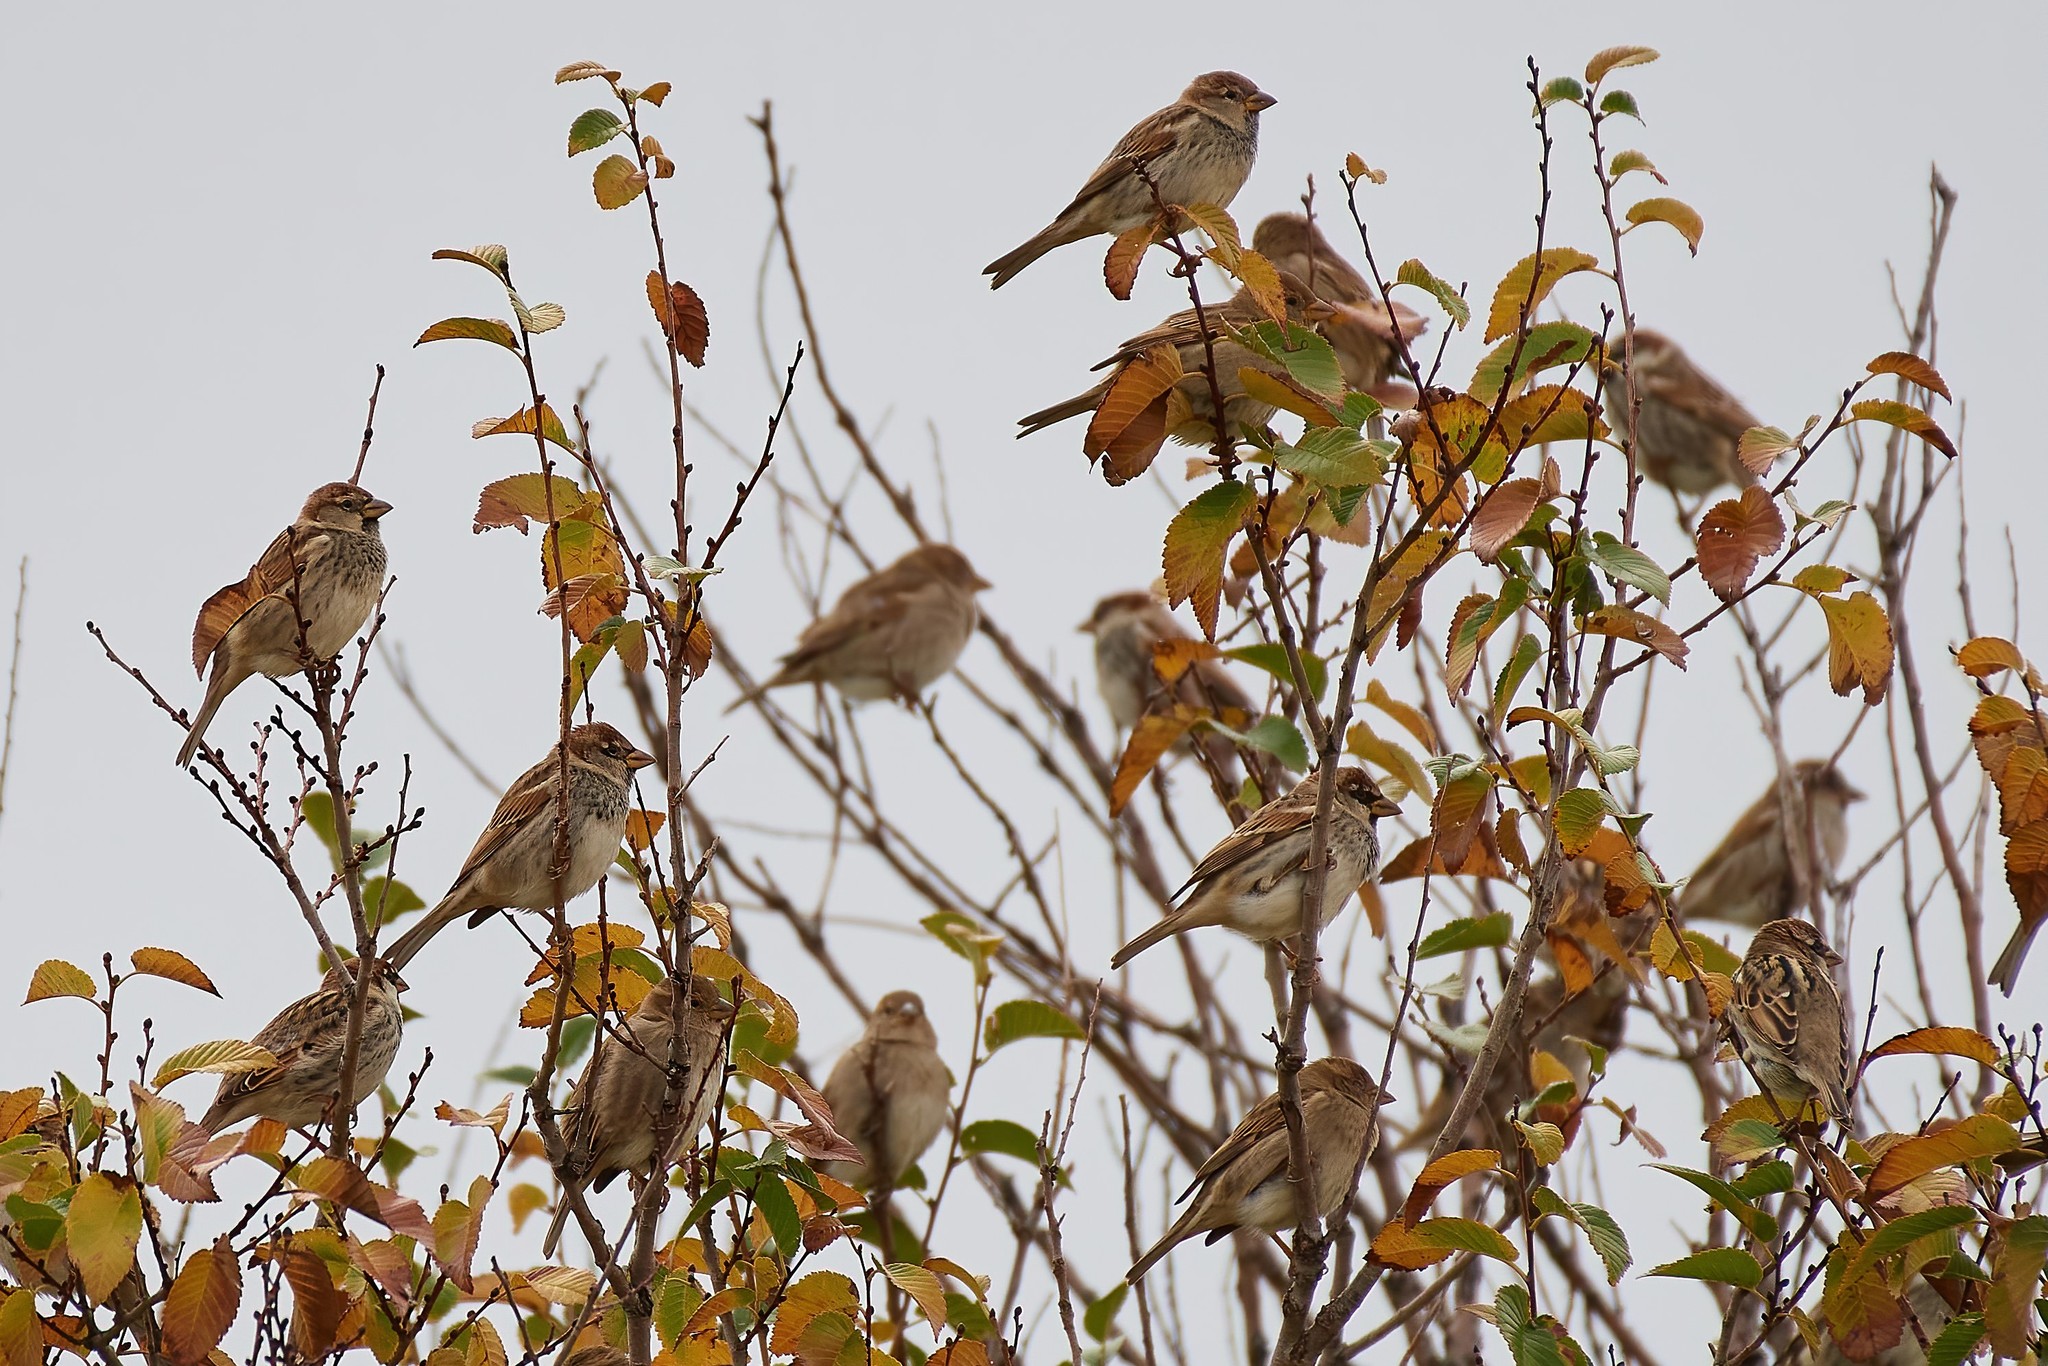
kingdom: Animalia
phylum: Chordata
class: Aves
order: Passeriformes
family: Passeridae
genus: Passer
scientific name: Passer hispaniolensis
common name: Spanish sparrow
